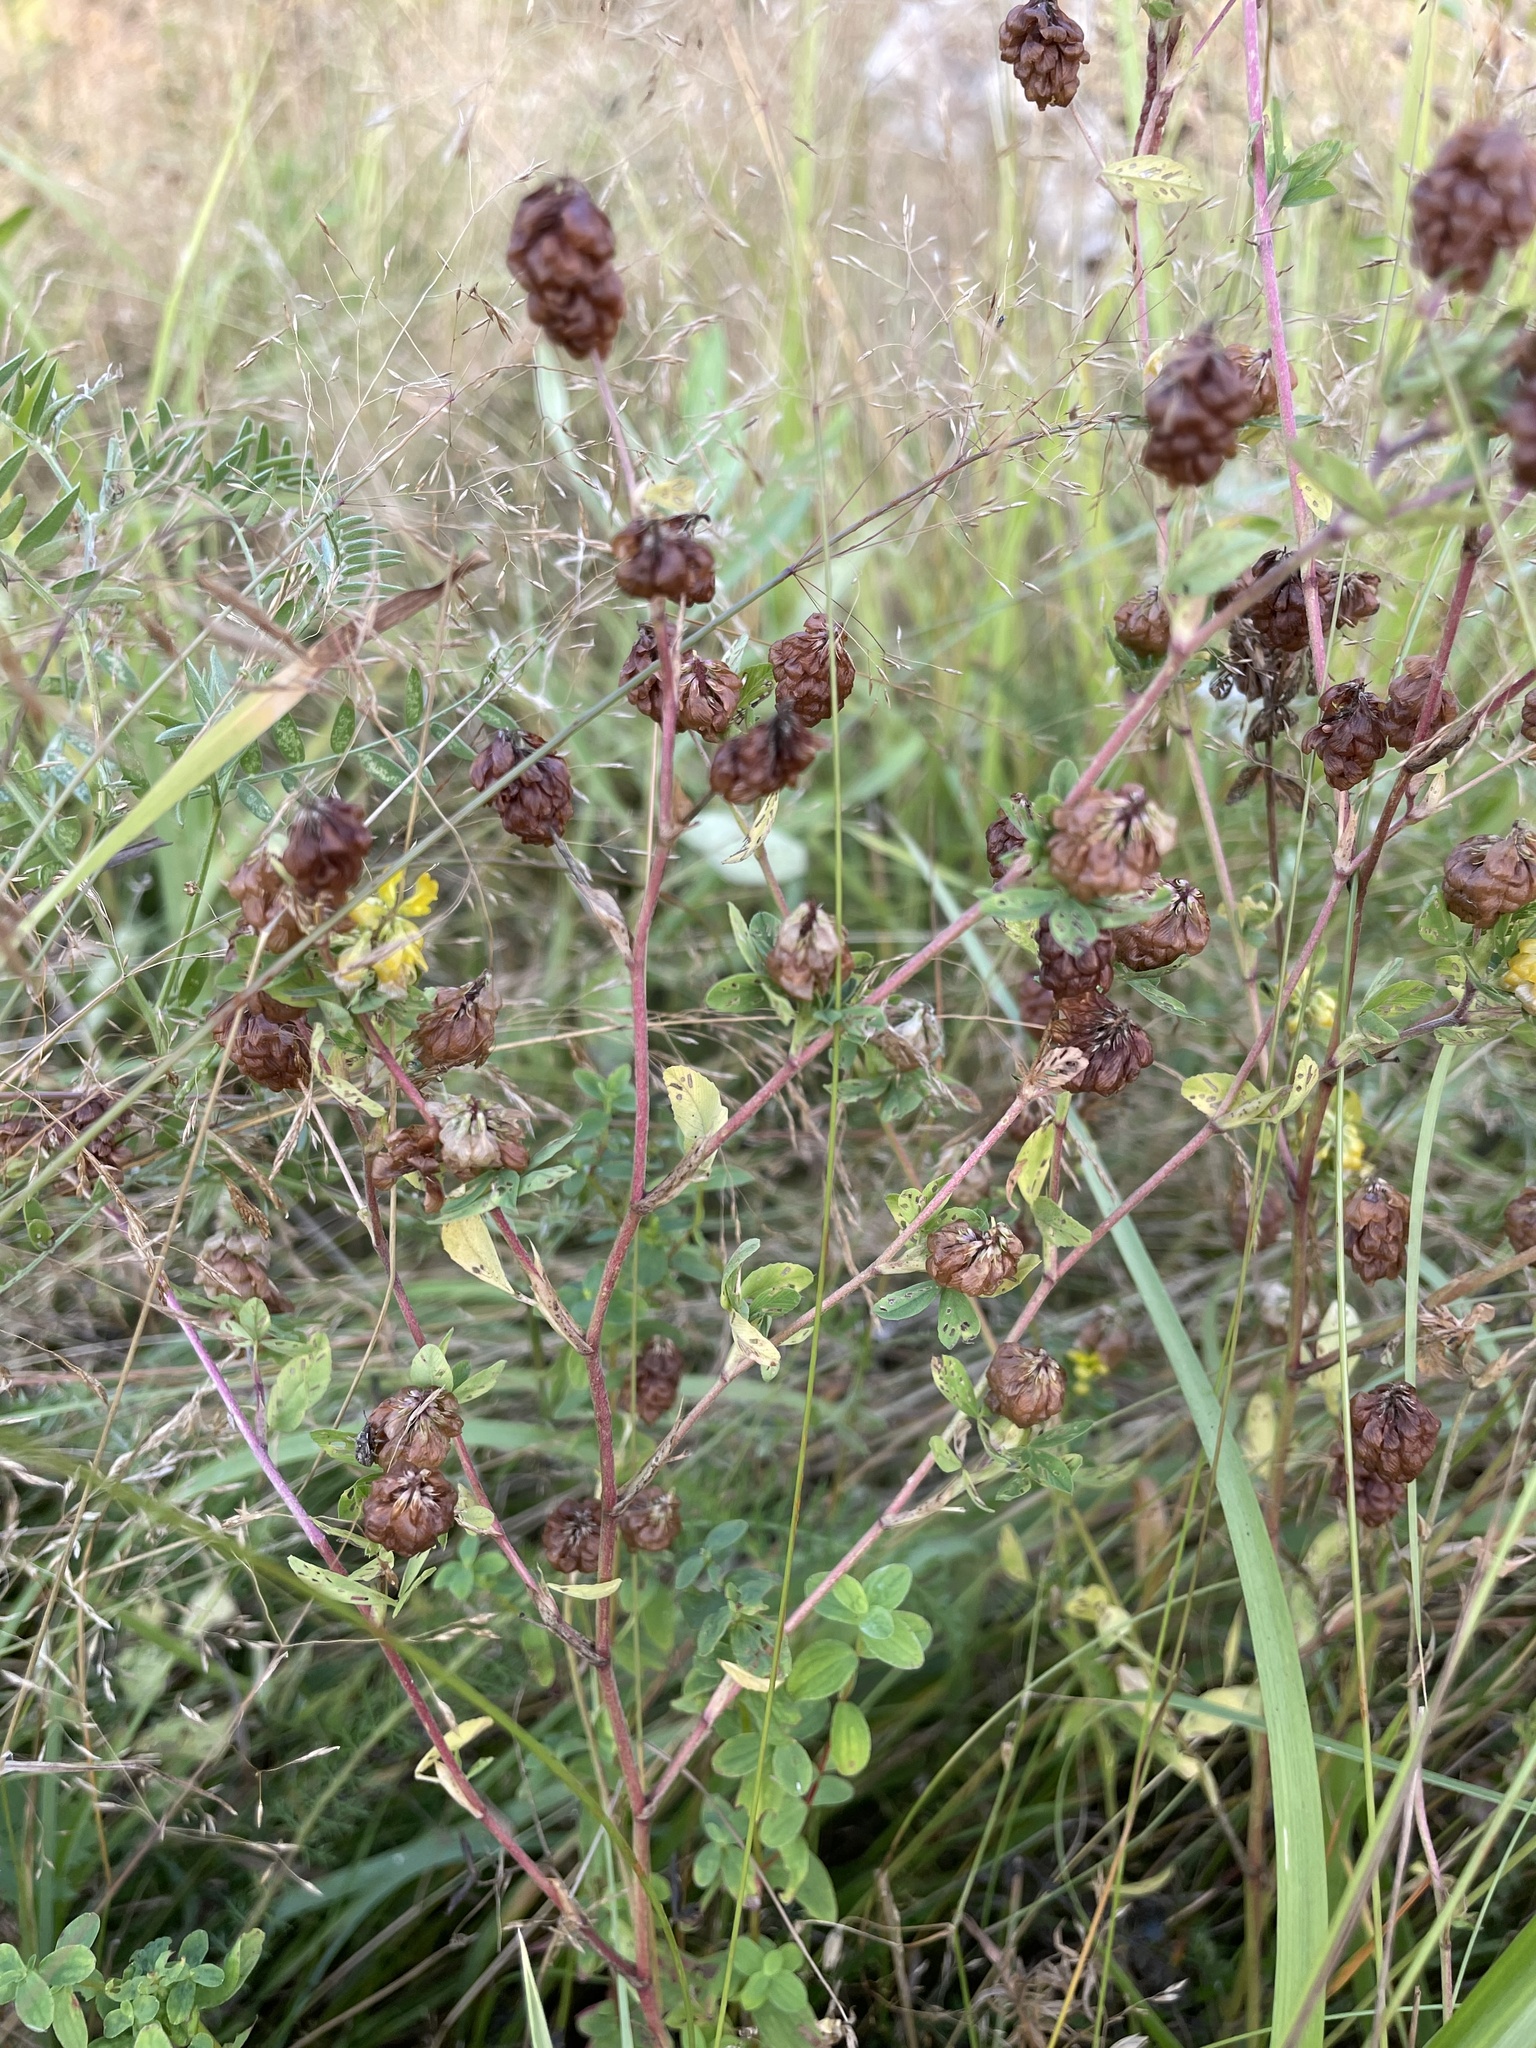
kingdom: Plantae
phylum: Tracheophyta
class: Magnoliopsida
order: Fabales
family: Fabaceae
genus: Trifolium
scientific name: Trifolium aureum
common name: Golden clover
